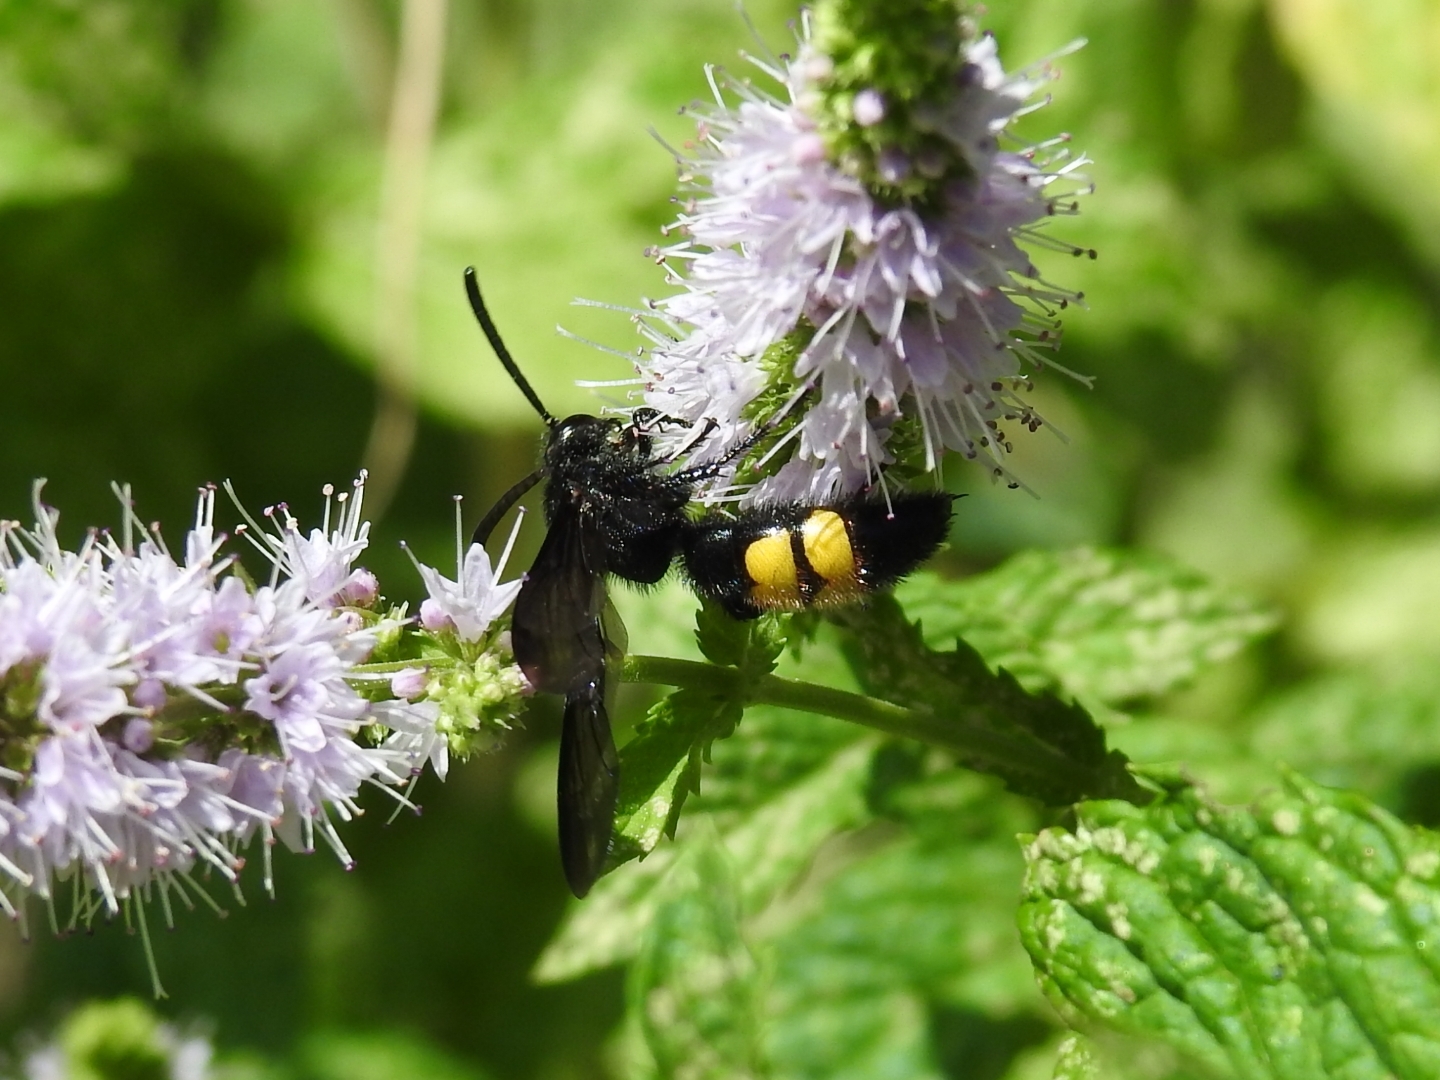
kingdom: Animalia
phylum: Arthropoda
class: Insecta
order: Hymenoptera
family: Scoliidae
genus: Scolia
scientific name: Scolia hirta
